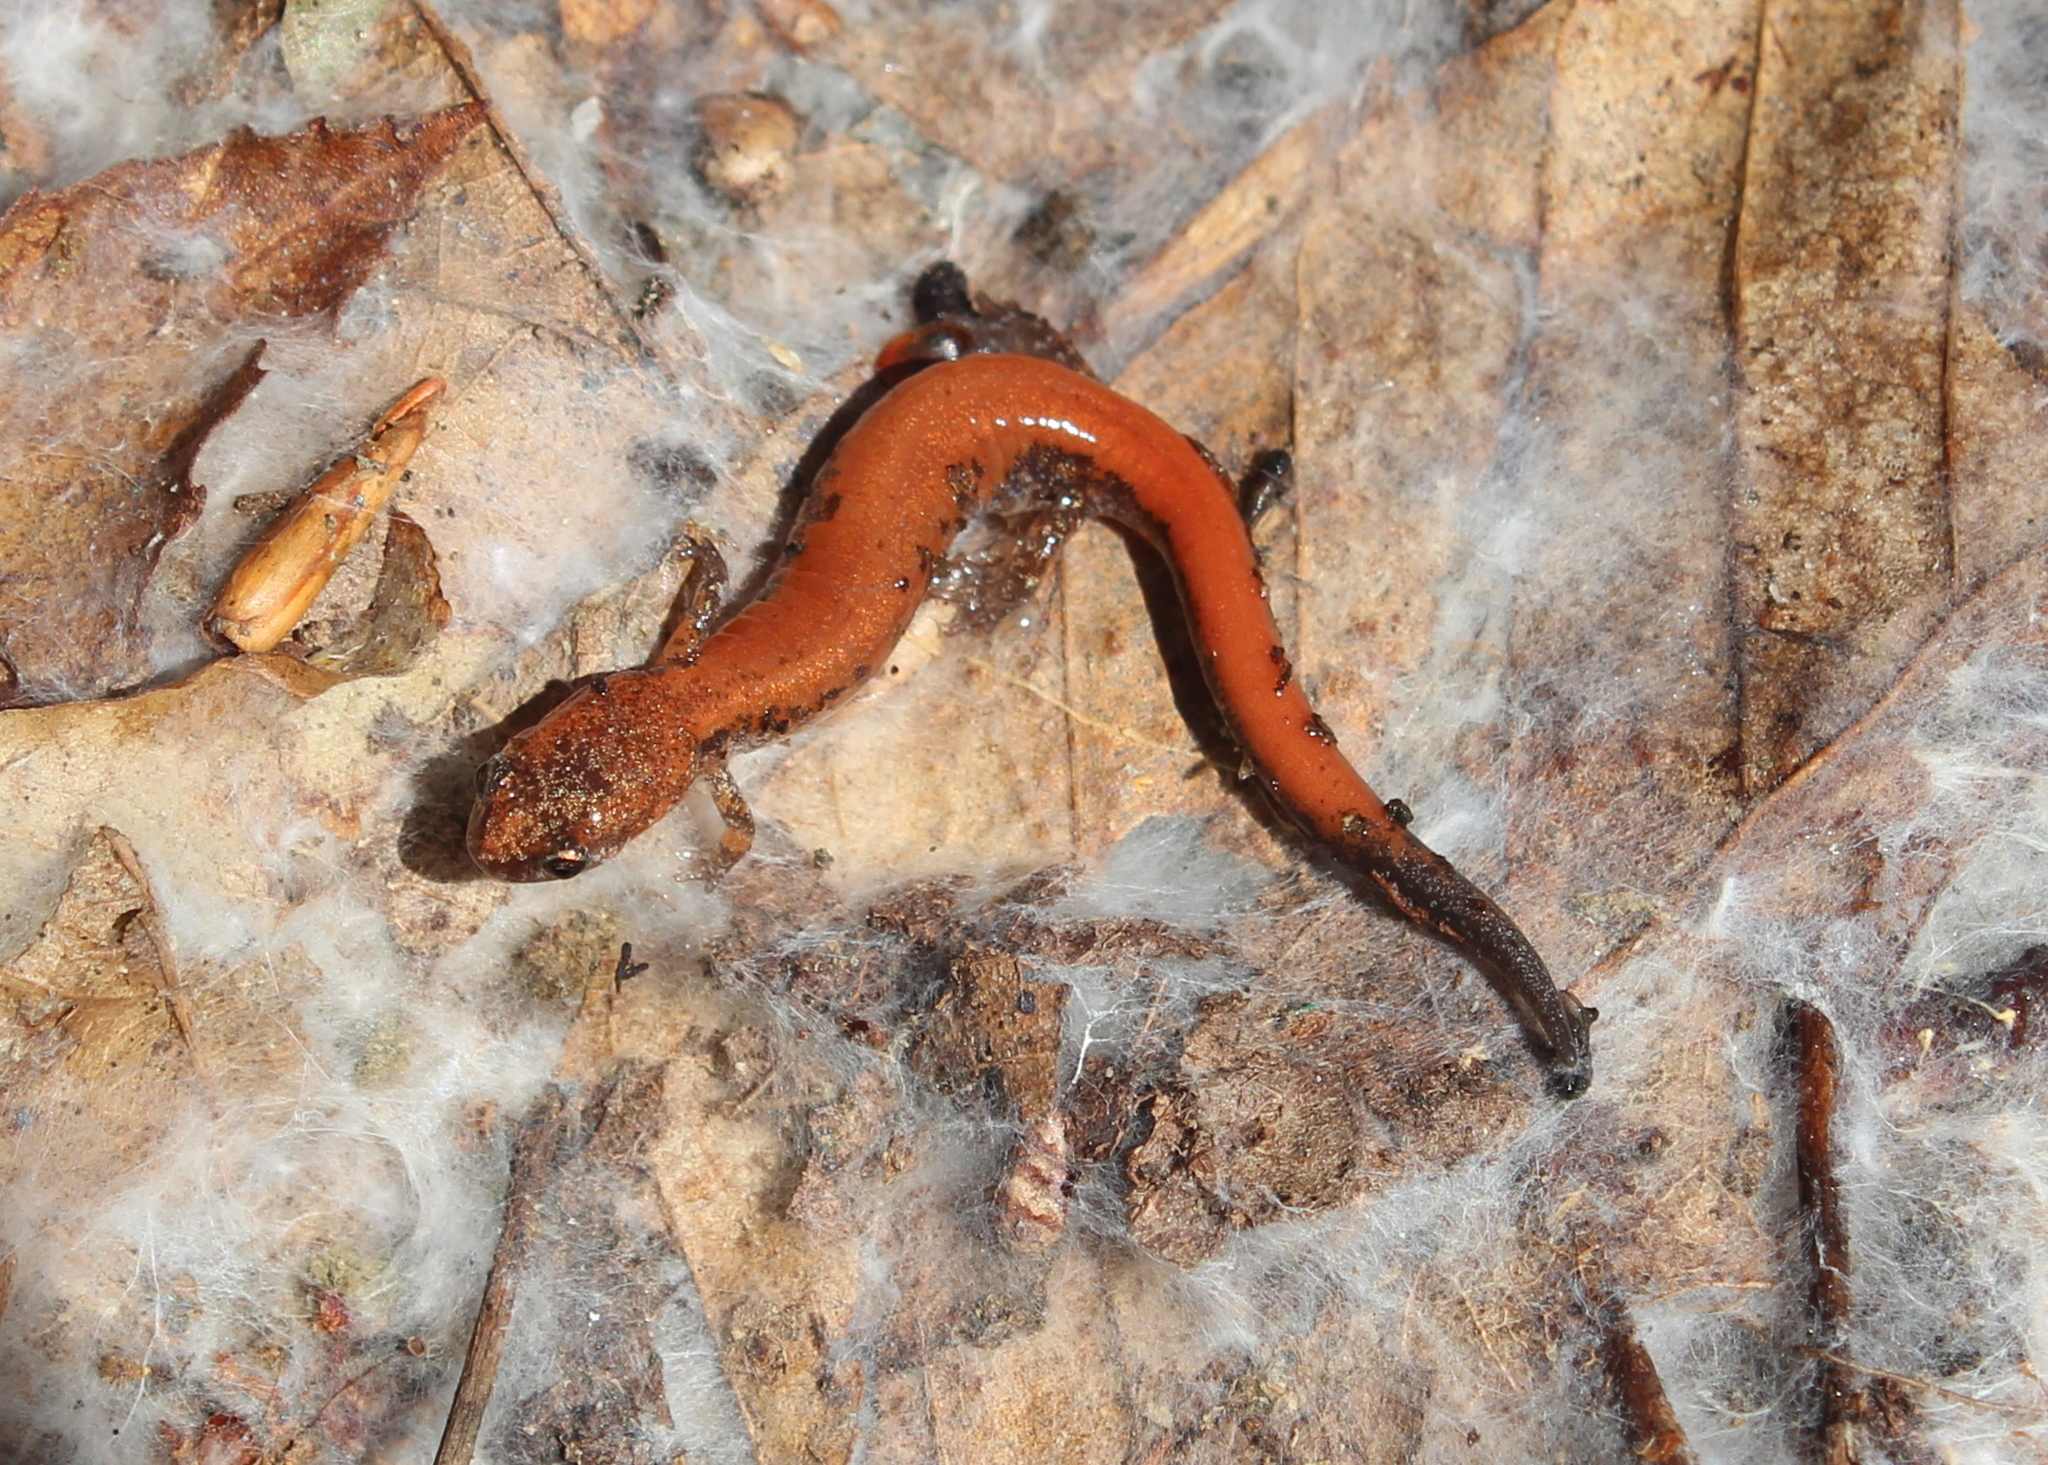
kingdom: Animalia
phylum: Chordata
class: Amphibia
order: Caudata
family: Plethodontidae
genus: Plethodon
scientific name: Plethodon cinereus
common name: Redback salamander
